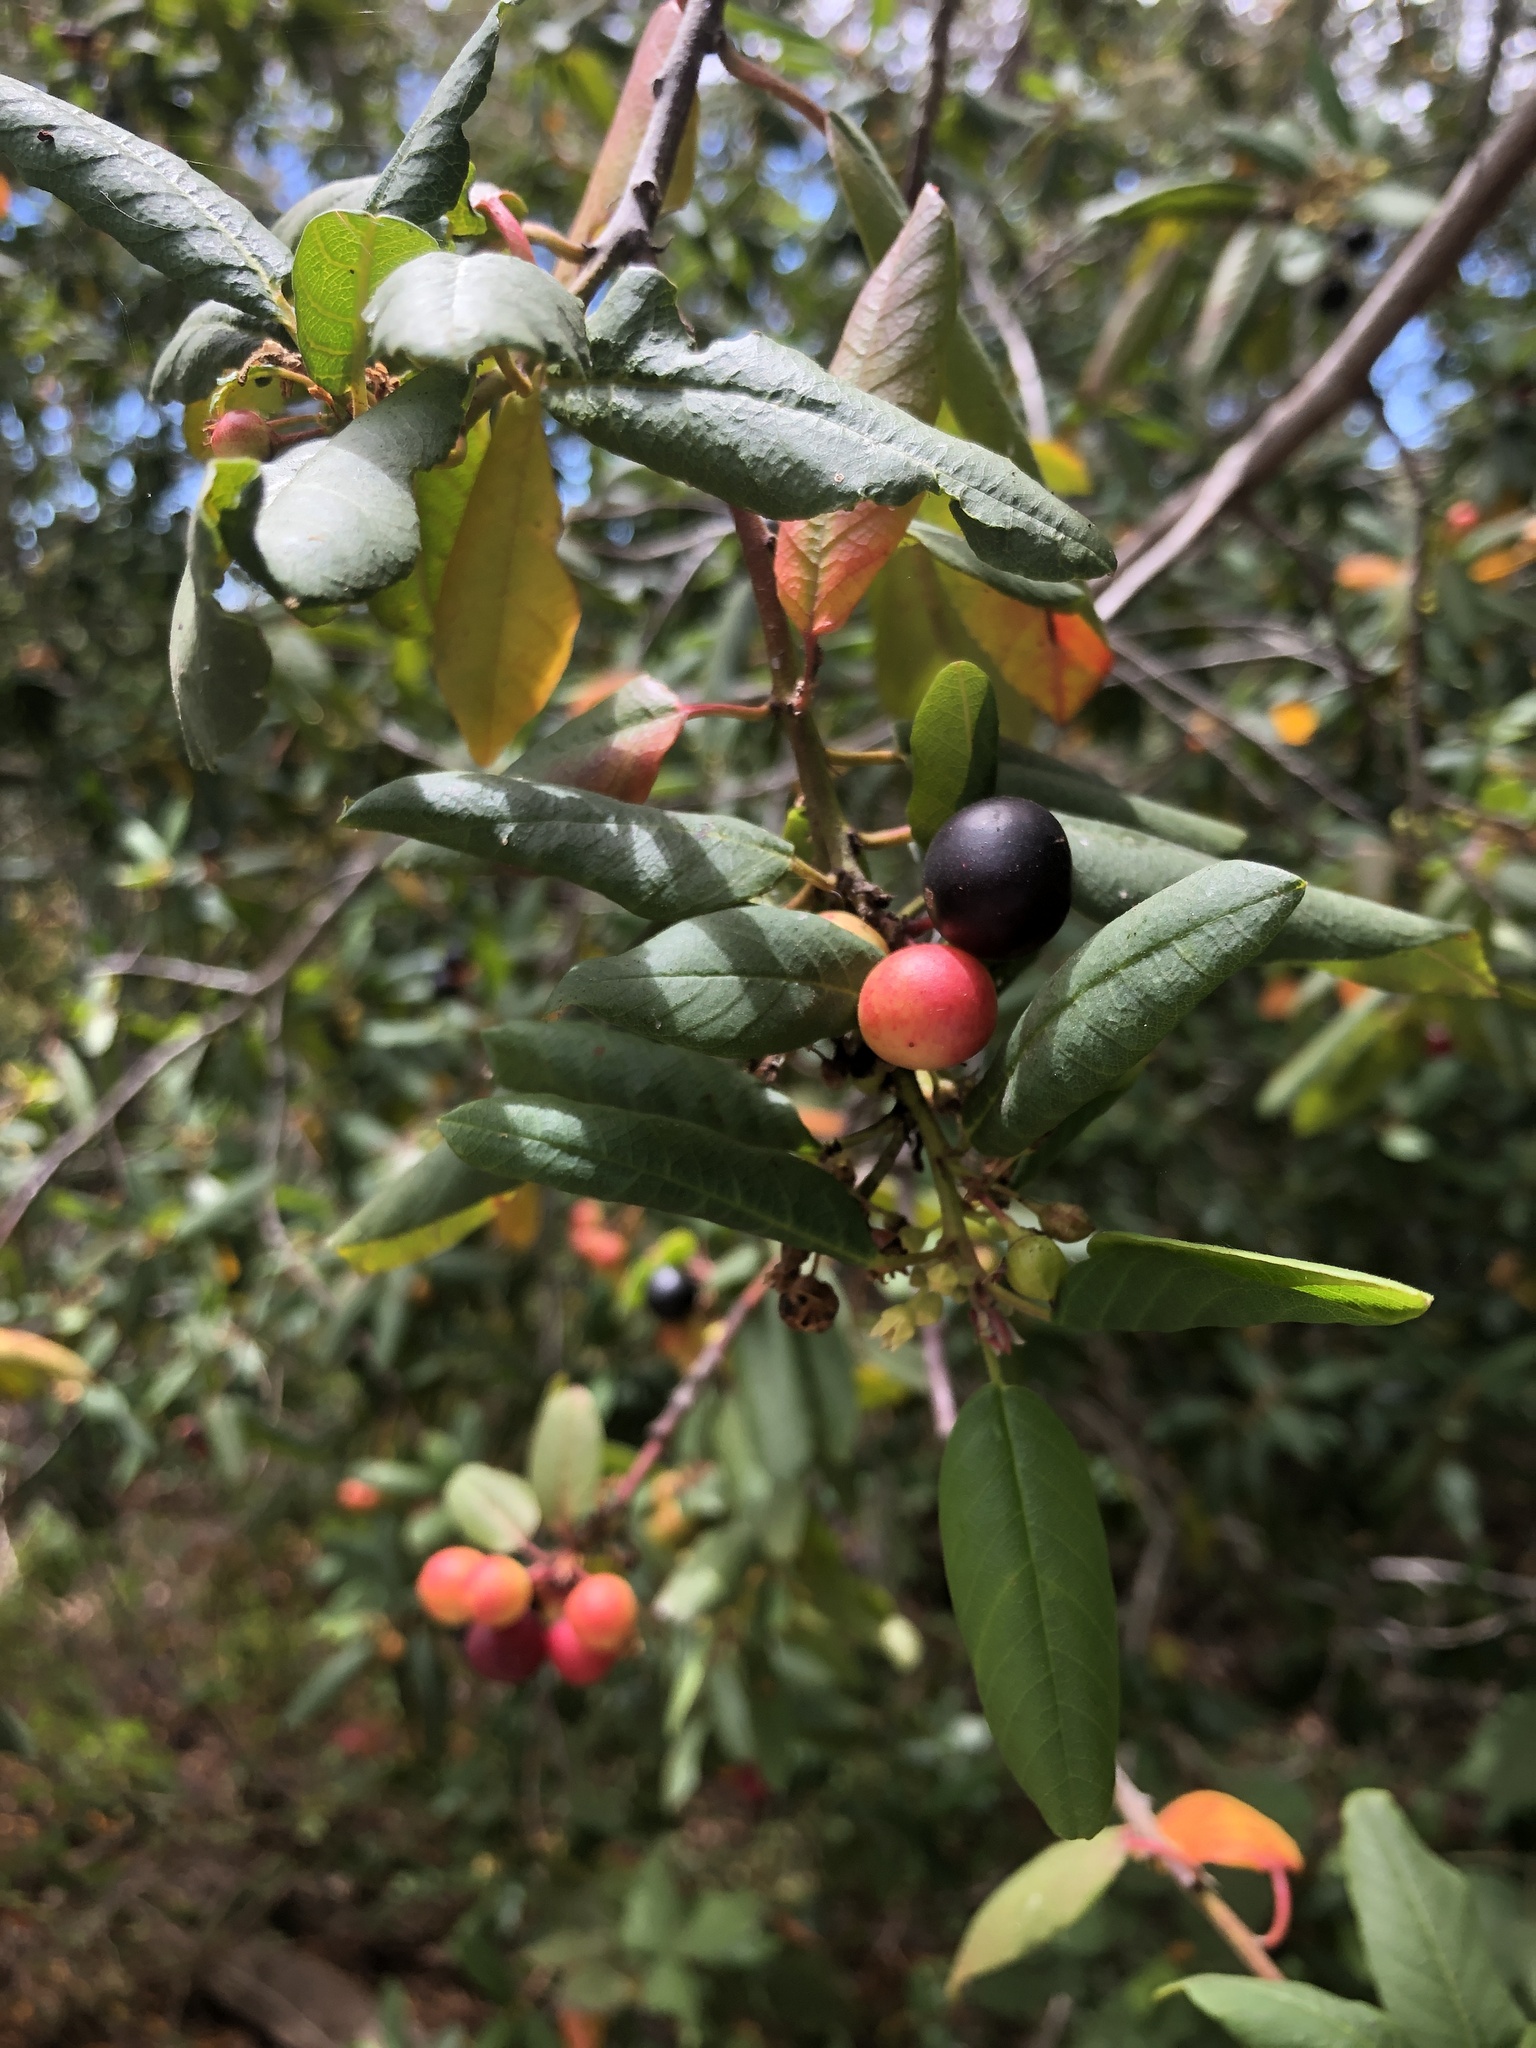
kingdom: Plantae
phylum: Tracheophyta
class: Magnoliopsida
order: Rosales
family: Rhamnaceae
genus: Frangula
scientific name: Frangula californica
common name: California buckthorn
